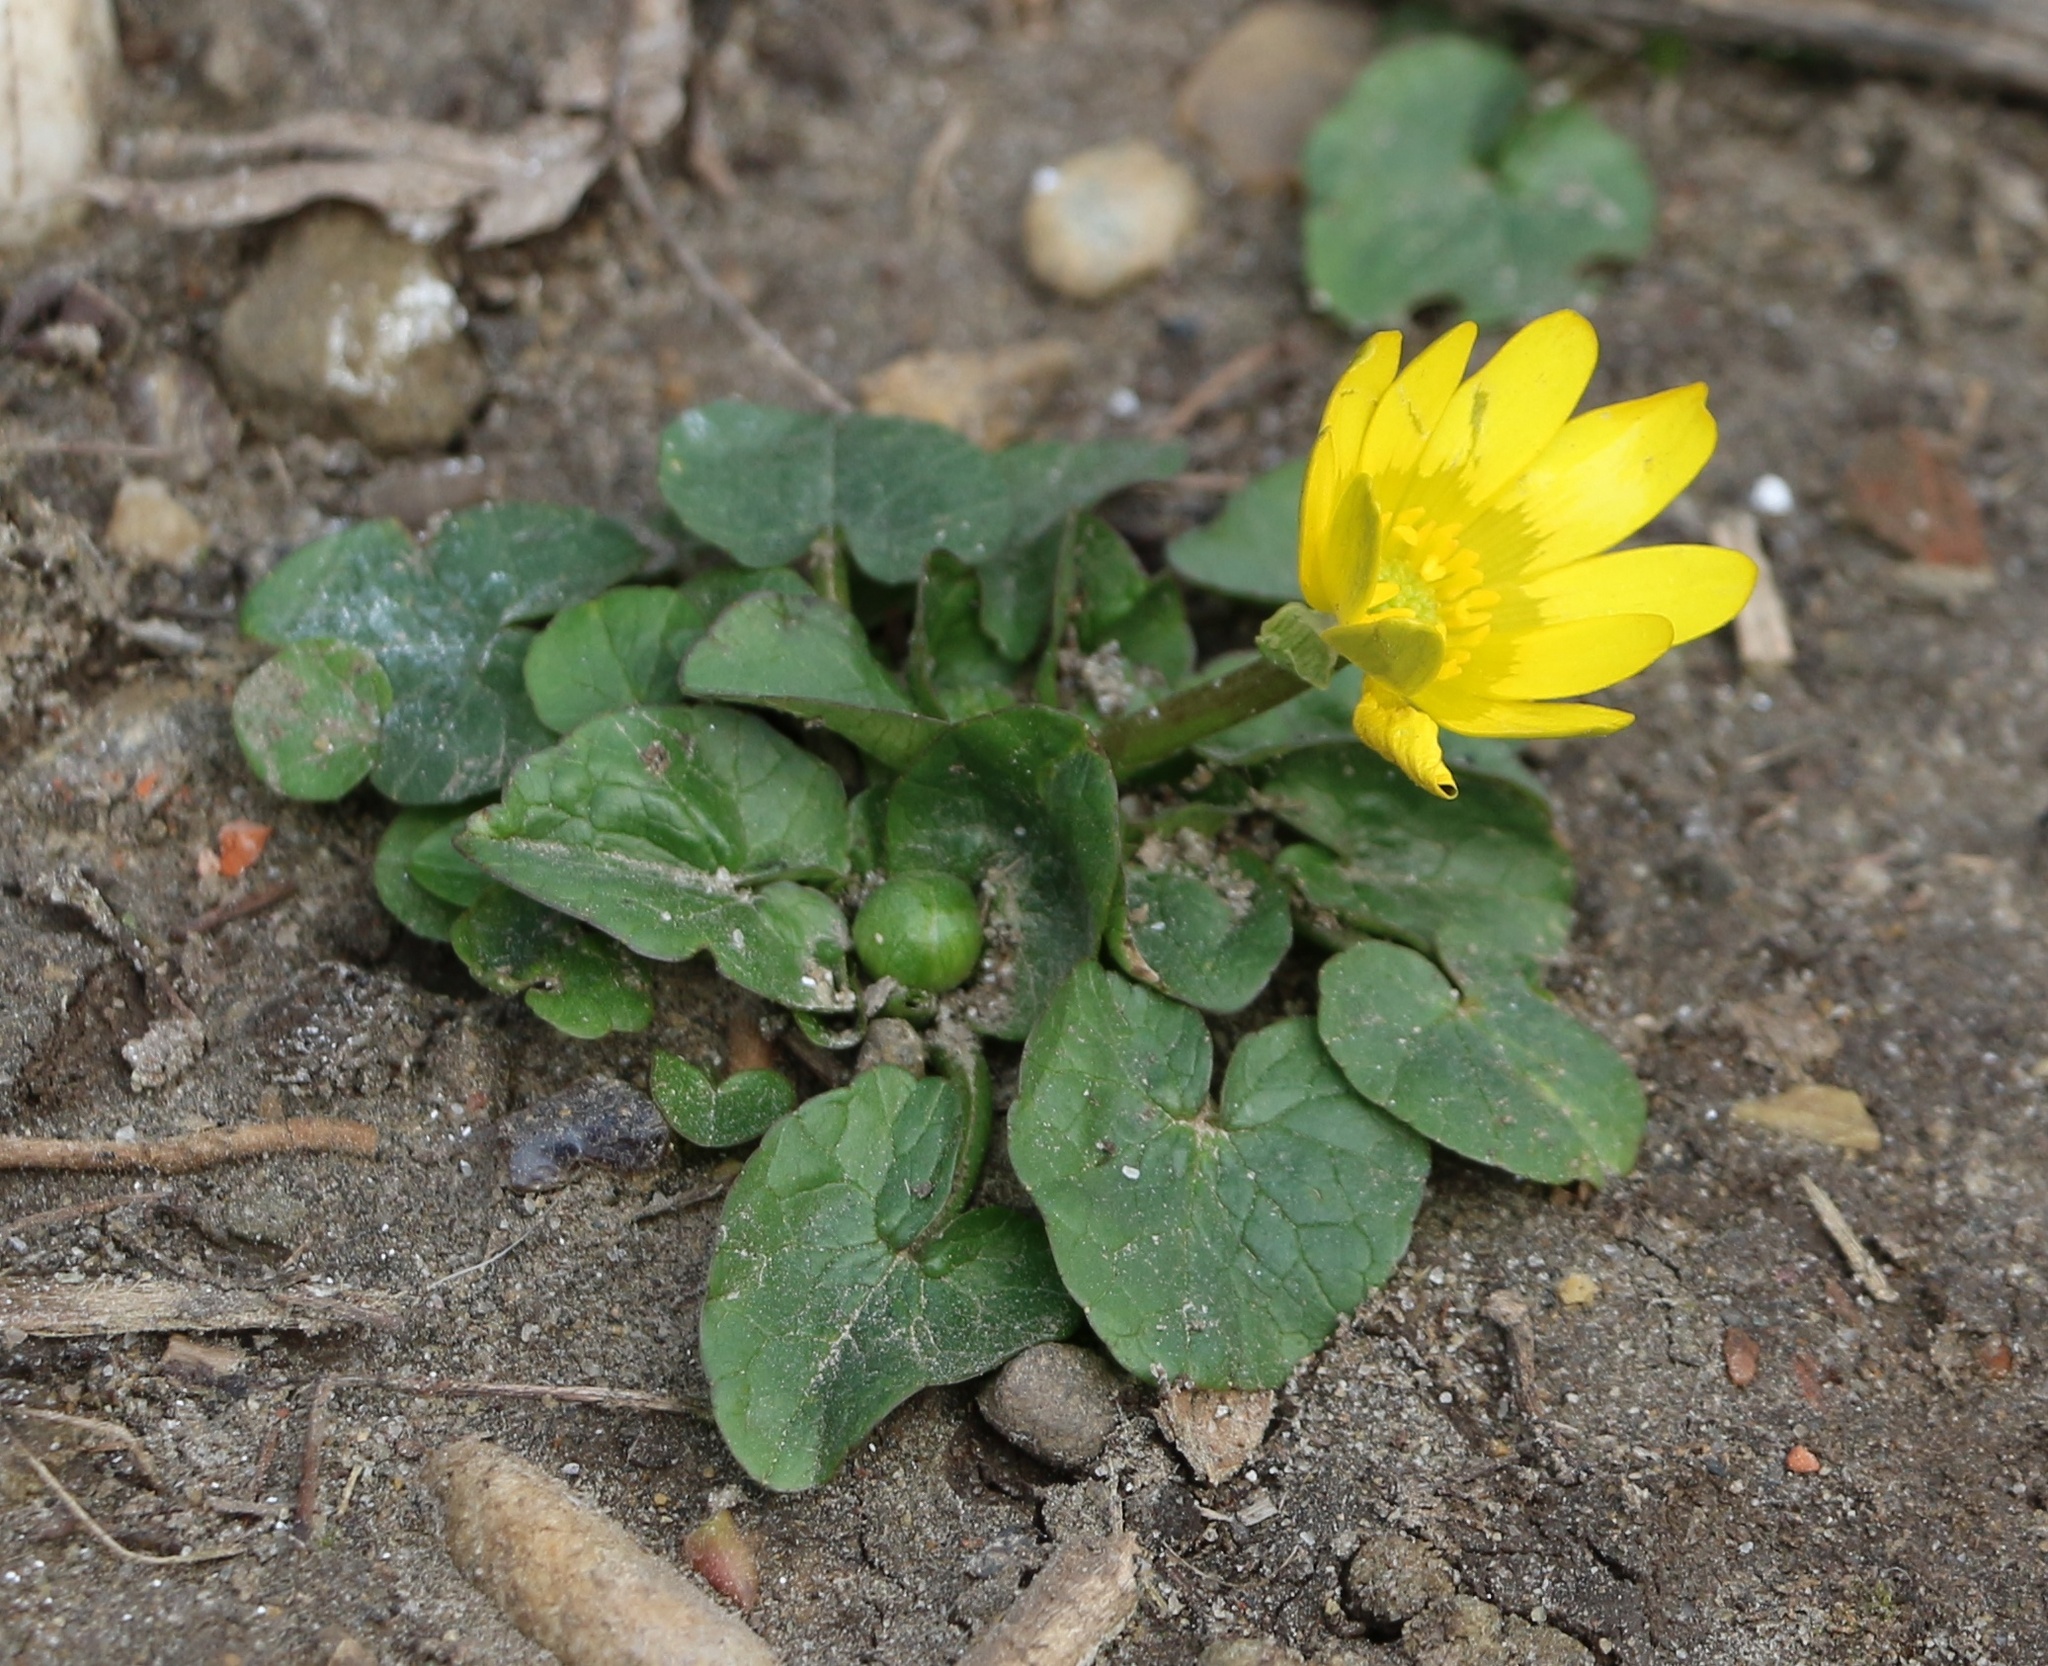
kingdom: Plantae
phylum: Tracheophyta
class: Magnoliopsida
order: Ranunculales
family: Ranunculaceae
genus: Ficaria
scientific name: Ficaria verna
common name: Lesser celandine
